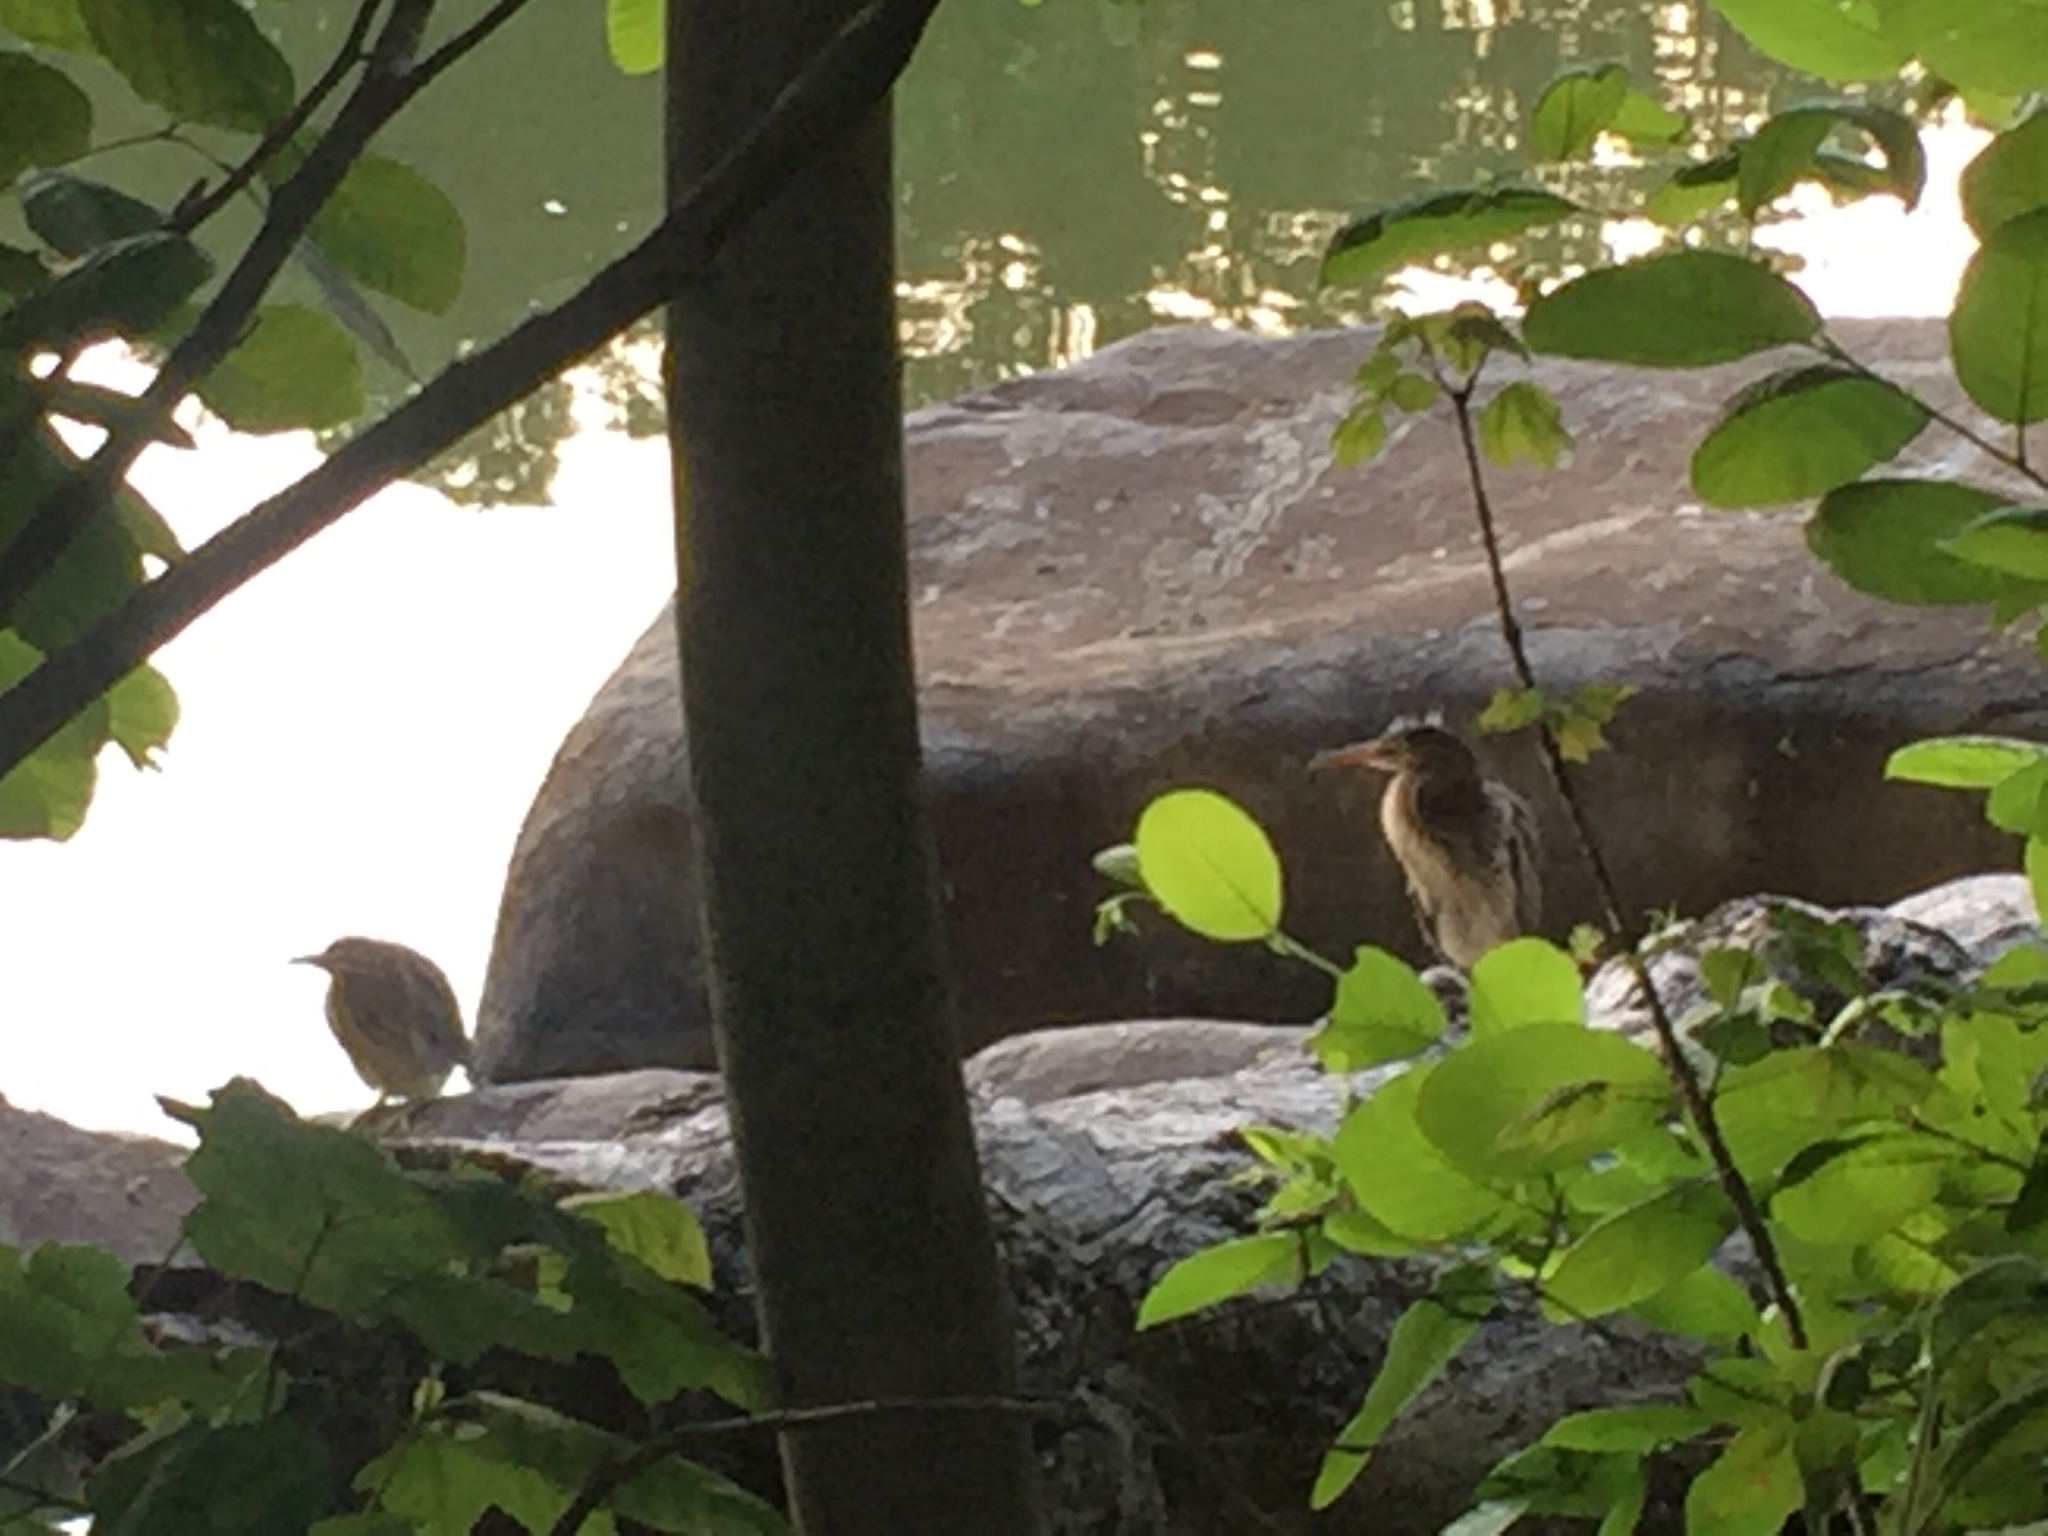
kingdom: Animalia
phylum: Chordata
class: Aves
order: Pelecaniformes
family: Ardeidae
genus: Butorides
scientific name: Butorides virescens
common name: Green heron
